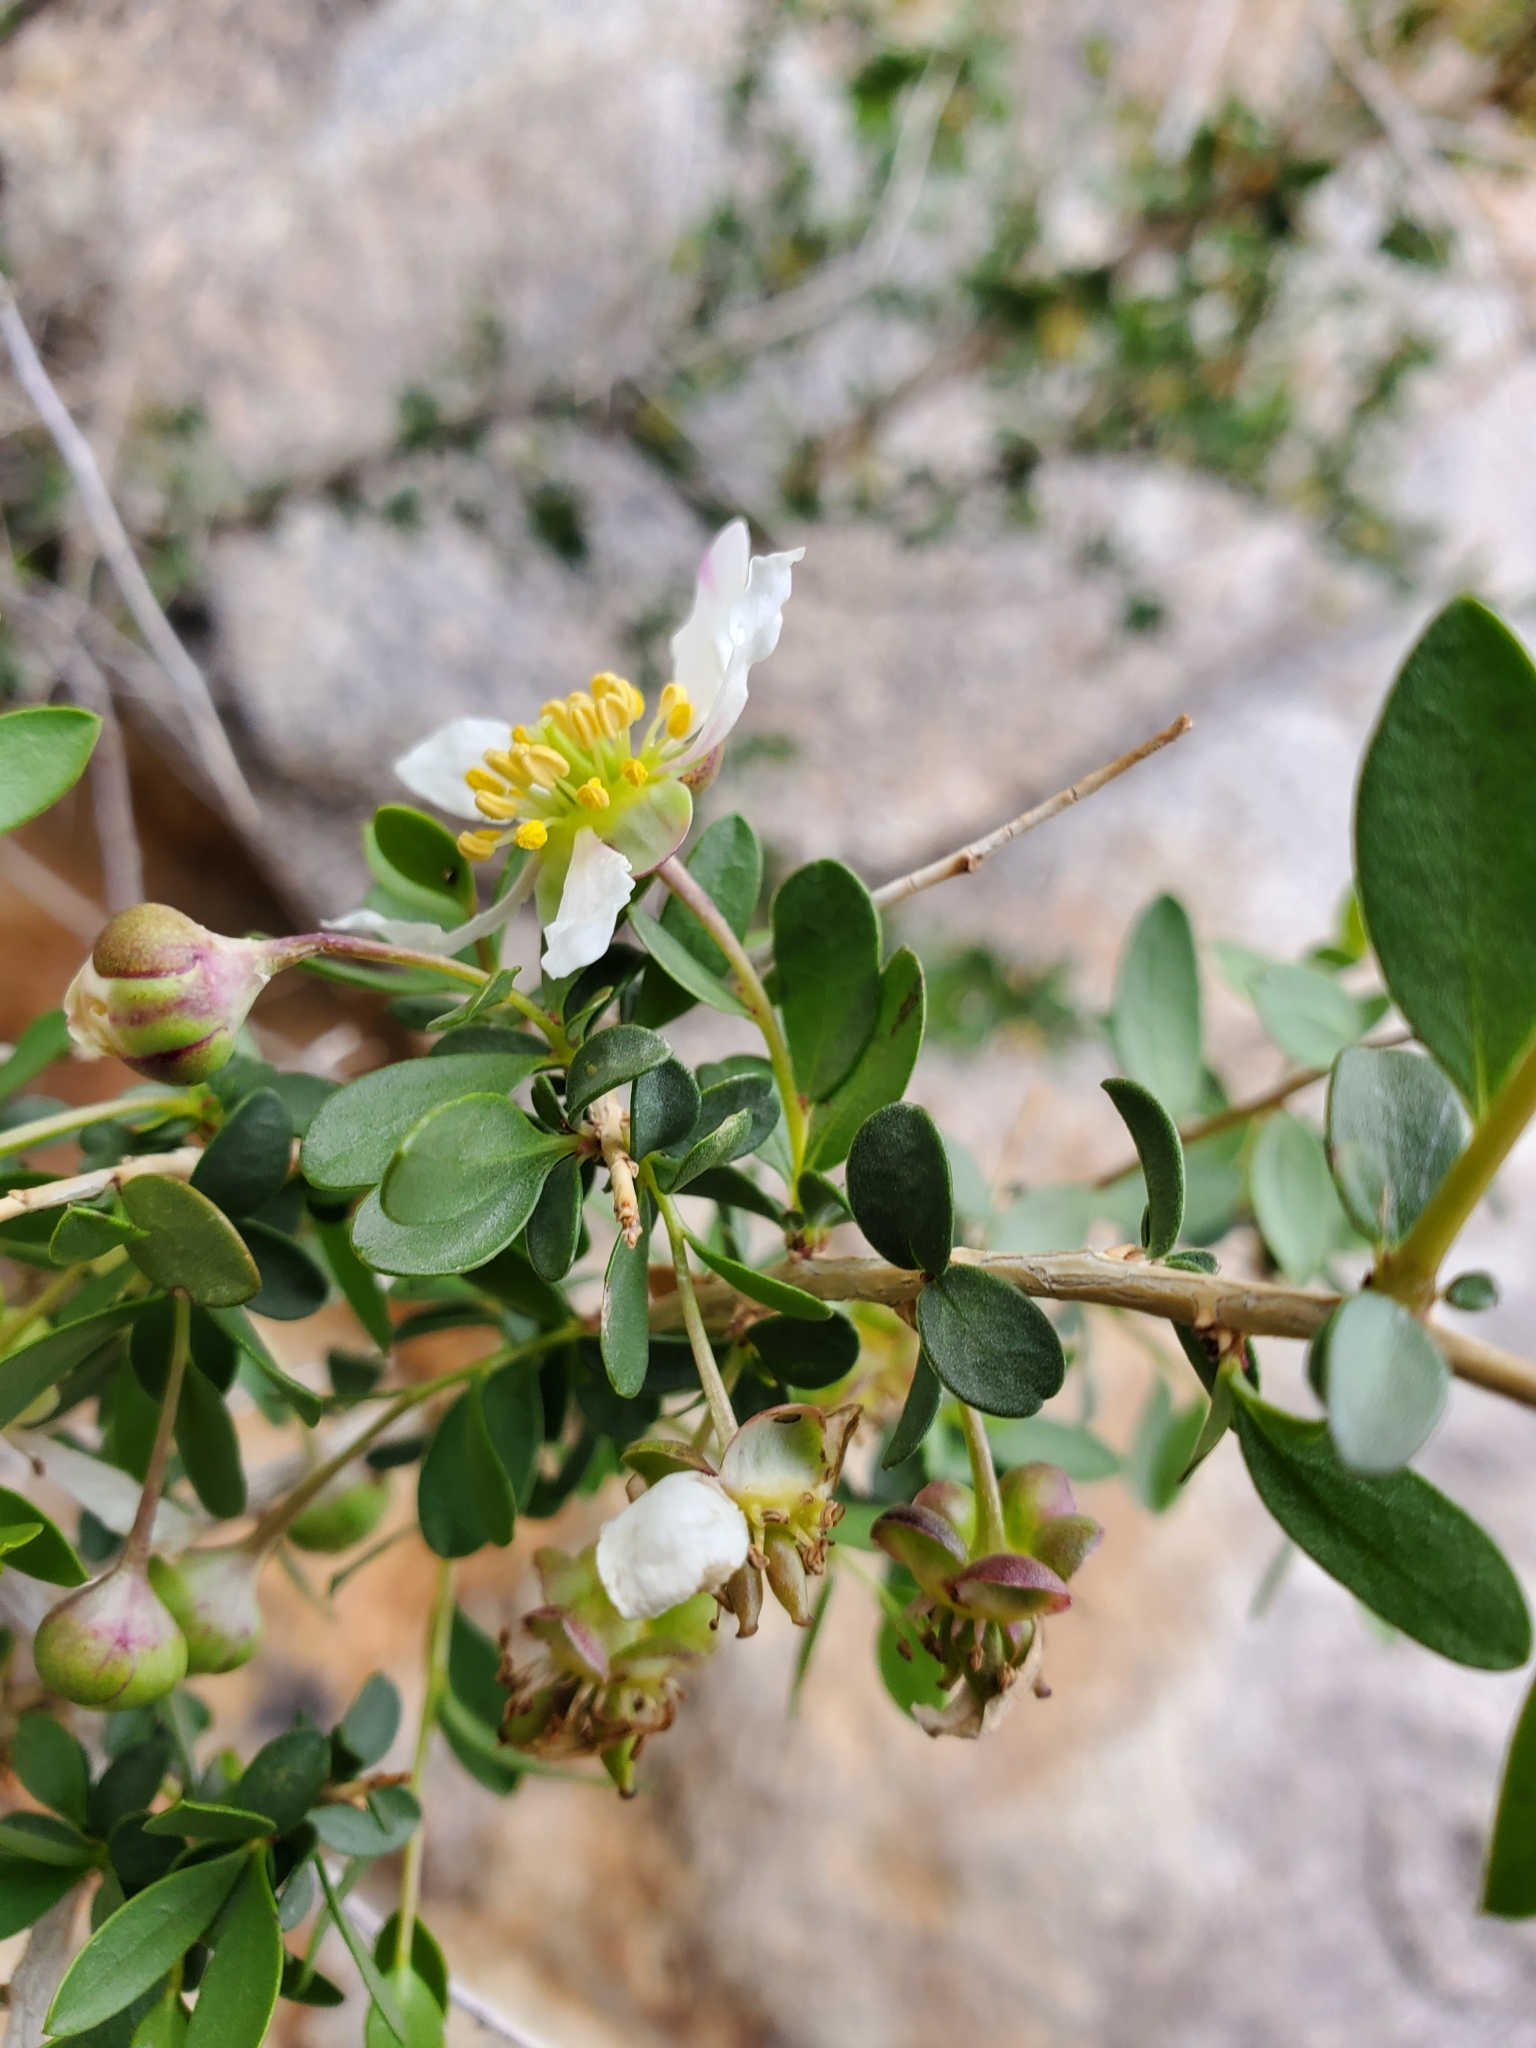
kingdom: Plantae
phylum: Tracheophyta
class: Magnoliopsida
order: Crossosomatales
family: Crossosomataceae
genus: Crossosoma
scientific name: Crossosoma bigelovii
